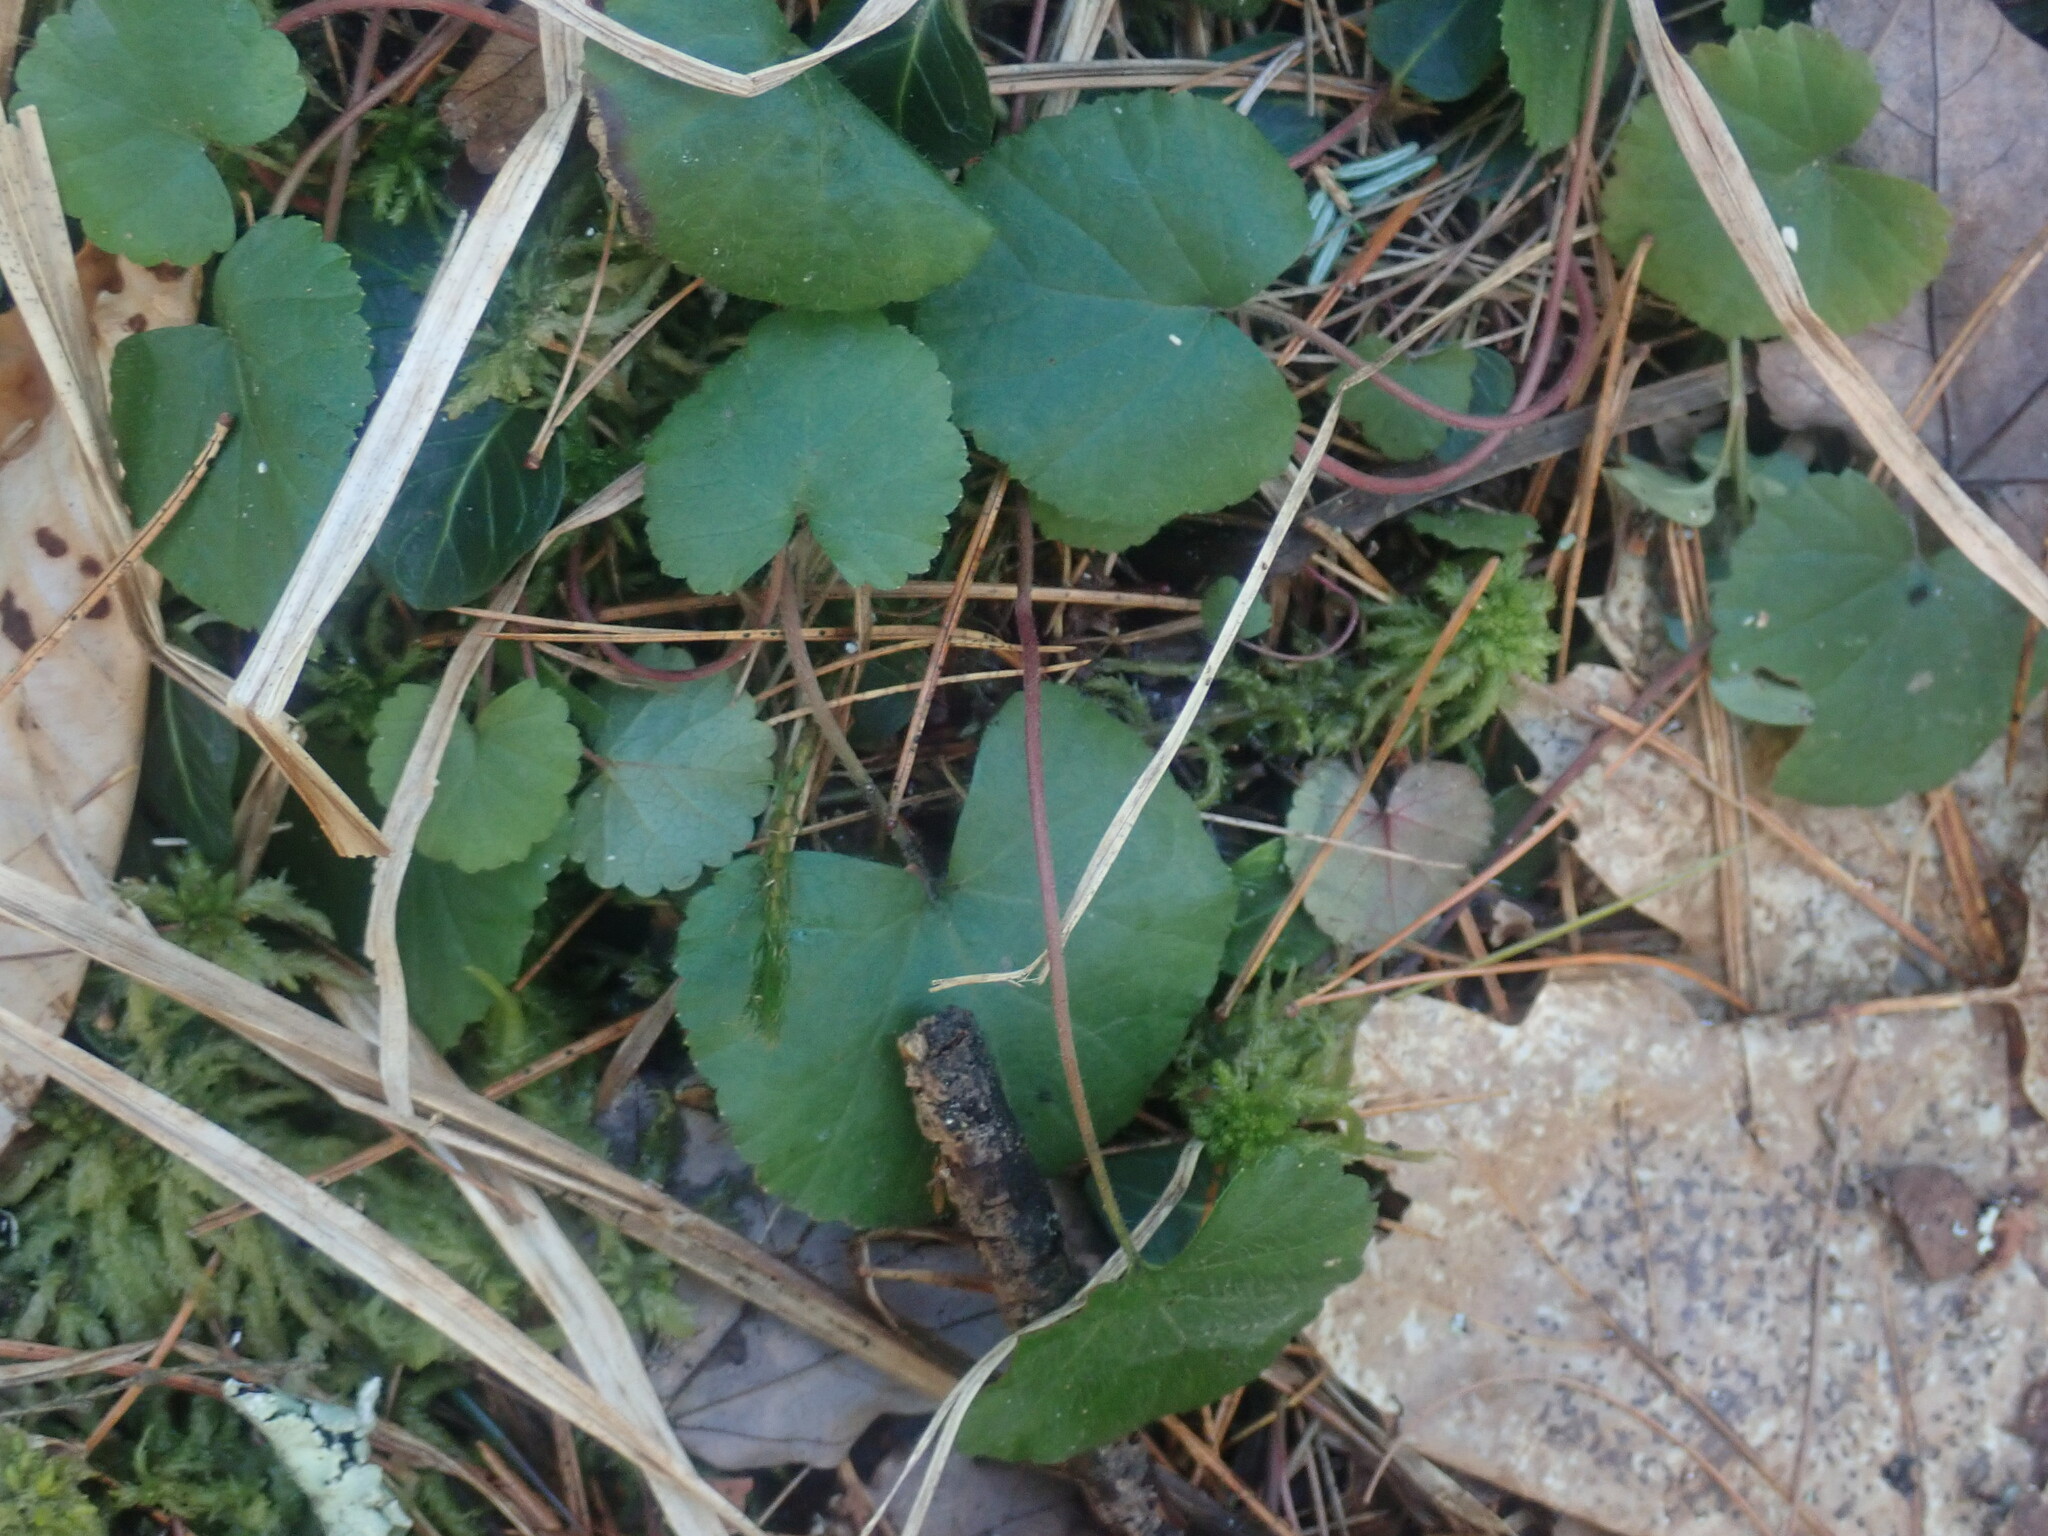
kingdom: Plantae
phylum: Tracheophyta
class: Magnoliopsida
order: Rosales
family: Rosaceae
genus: Dalibarda
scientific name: Dalibarda repens
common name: Dewdrop
